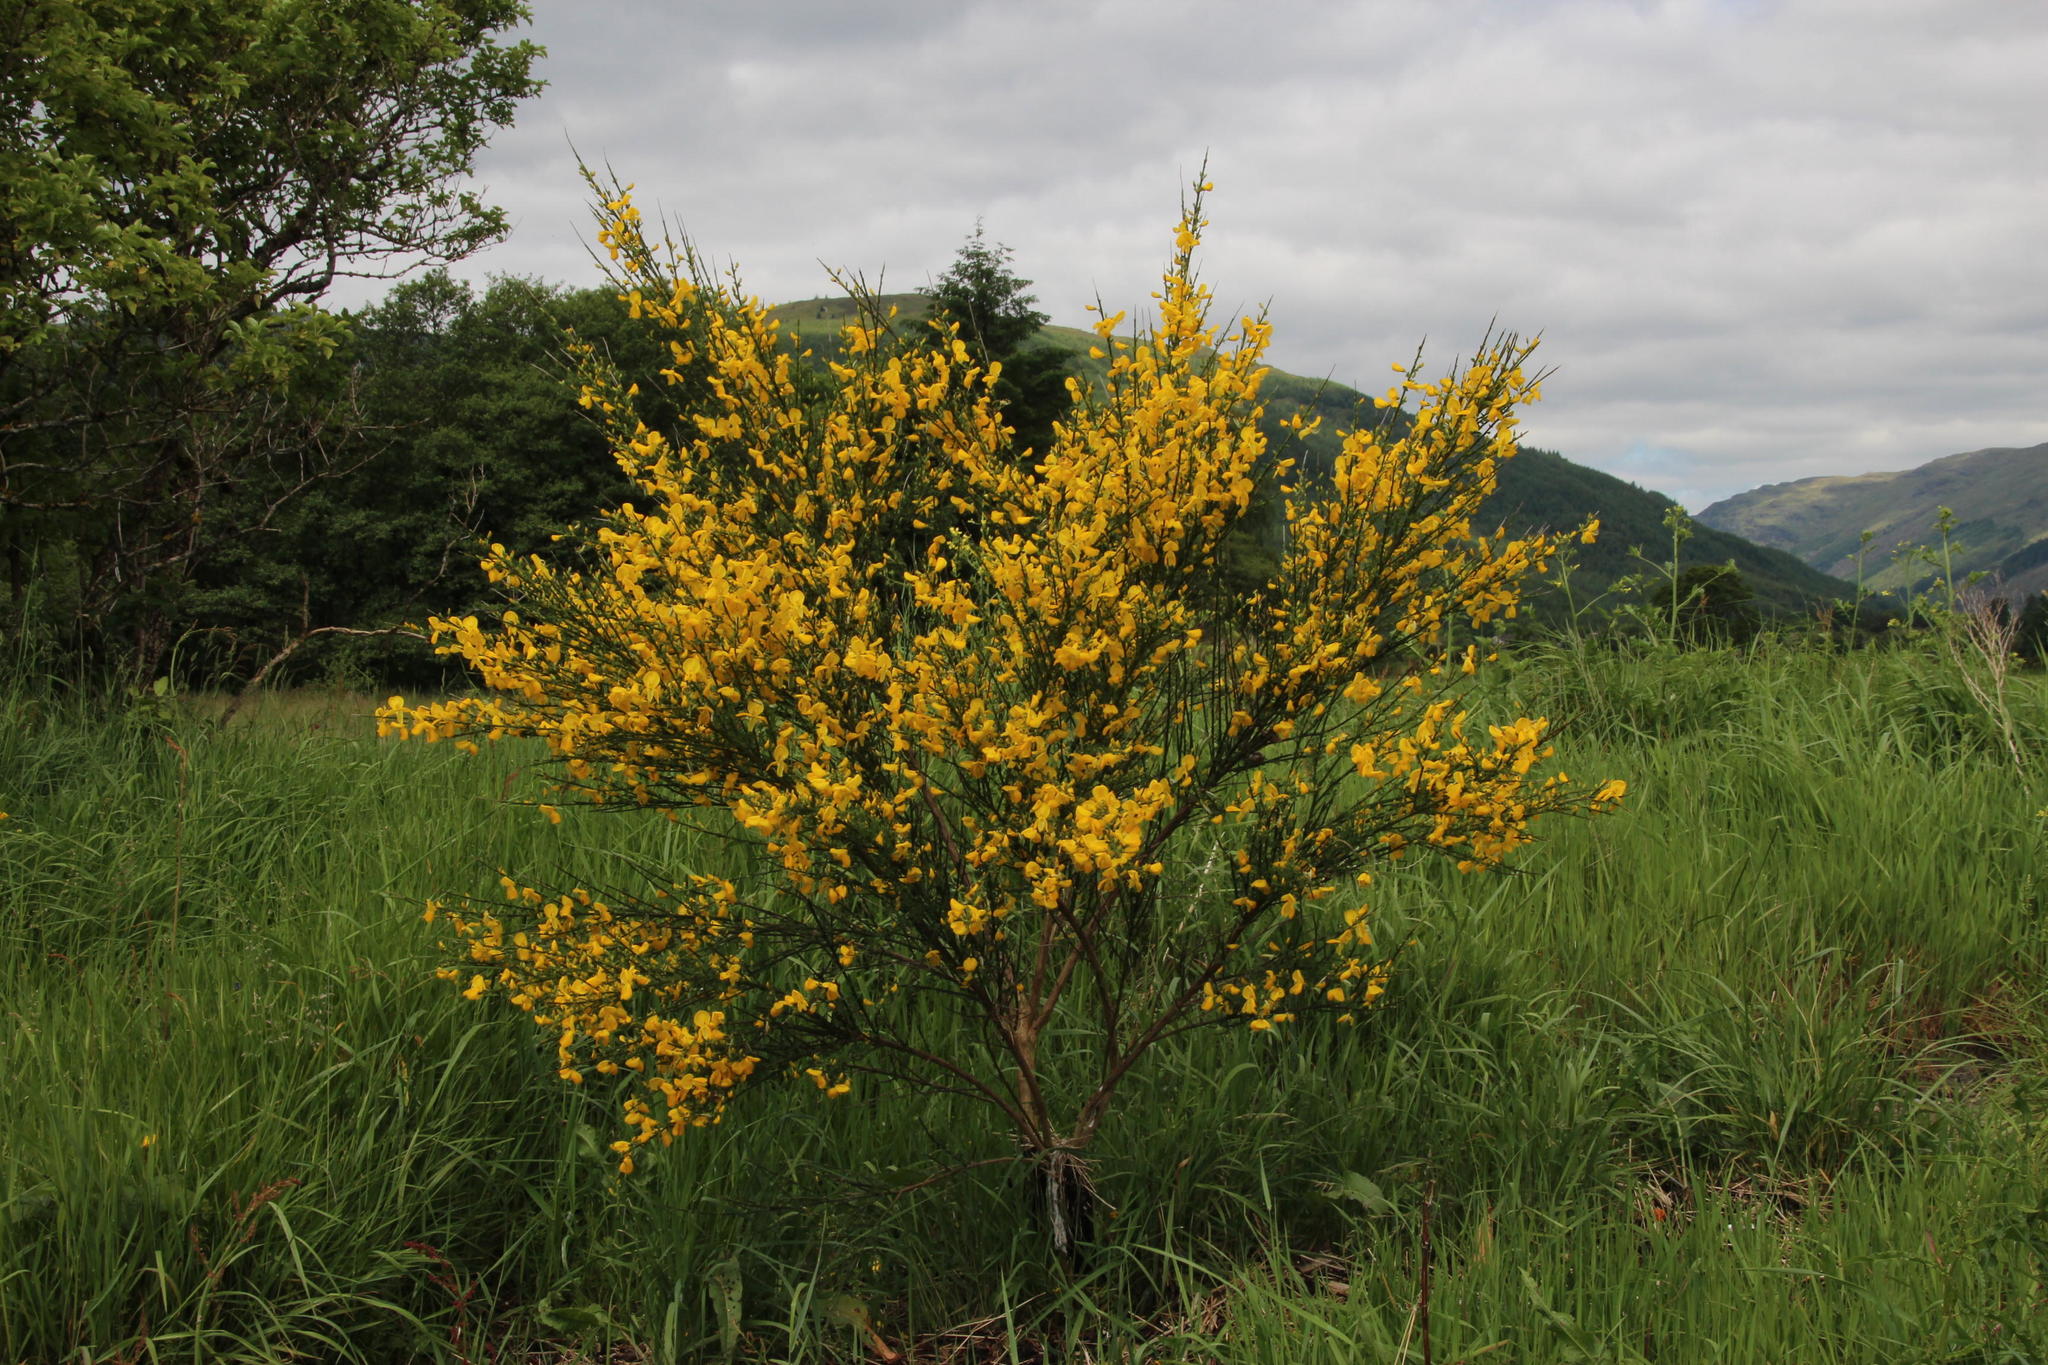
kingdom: Plantae
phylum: Tracheophyta
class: Magnoliopsida
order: Fabales
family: Fabaceae
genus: Cytisus
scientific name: Cytisus scoparius
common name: Scotch broom
